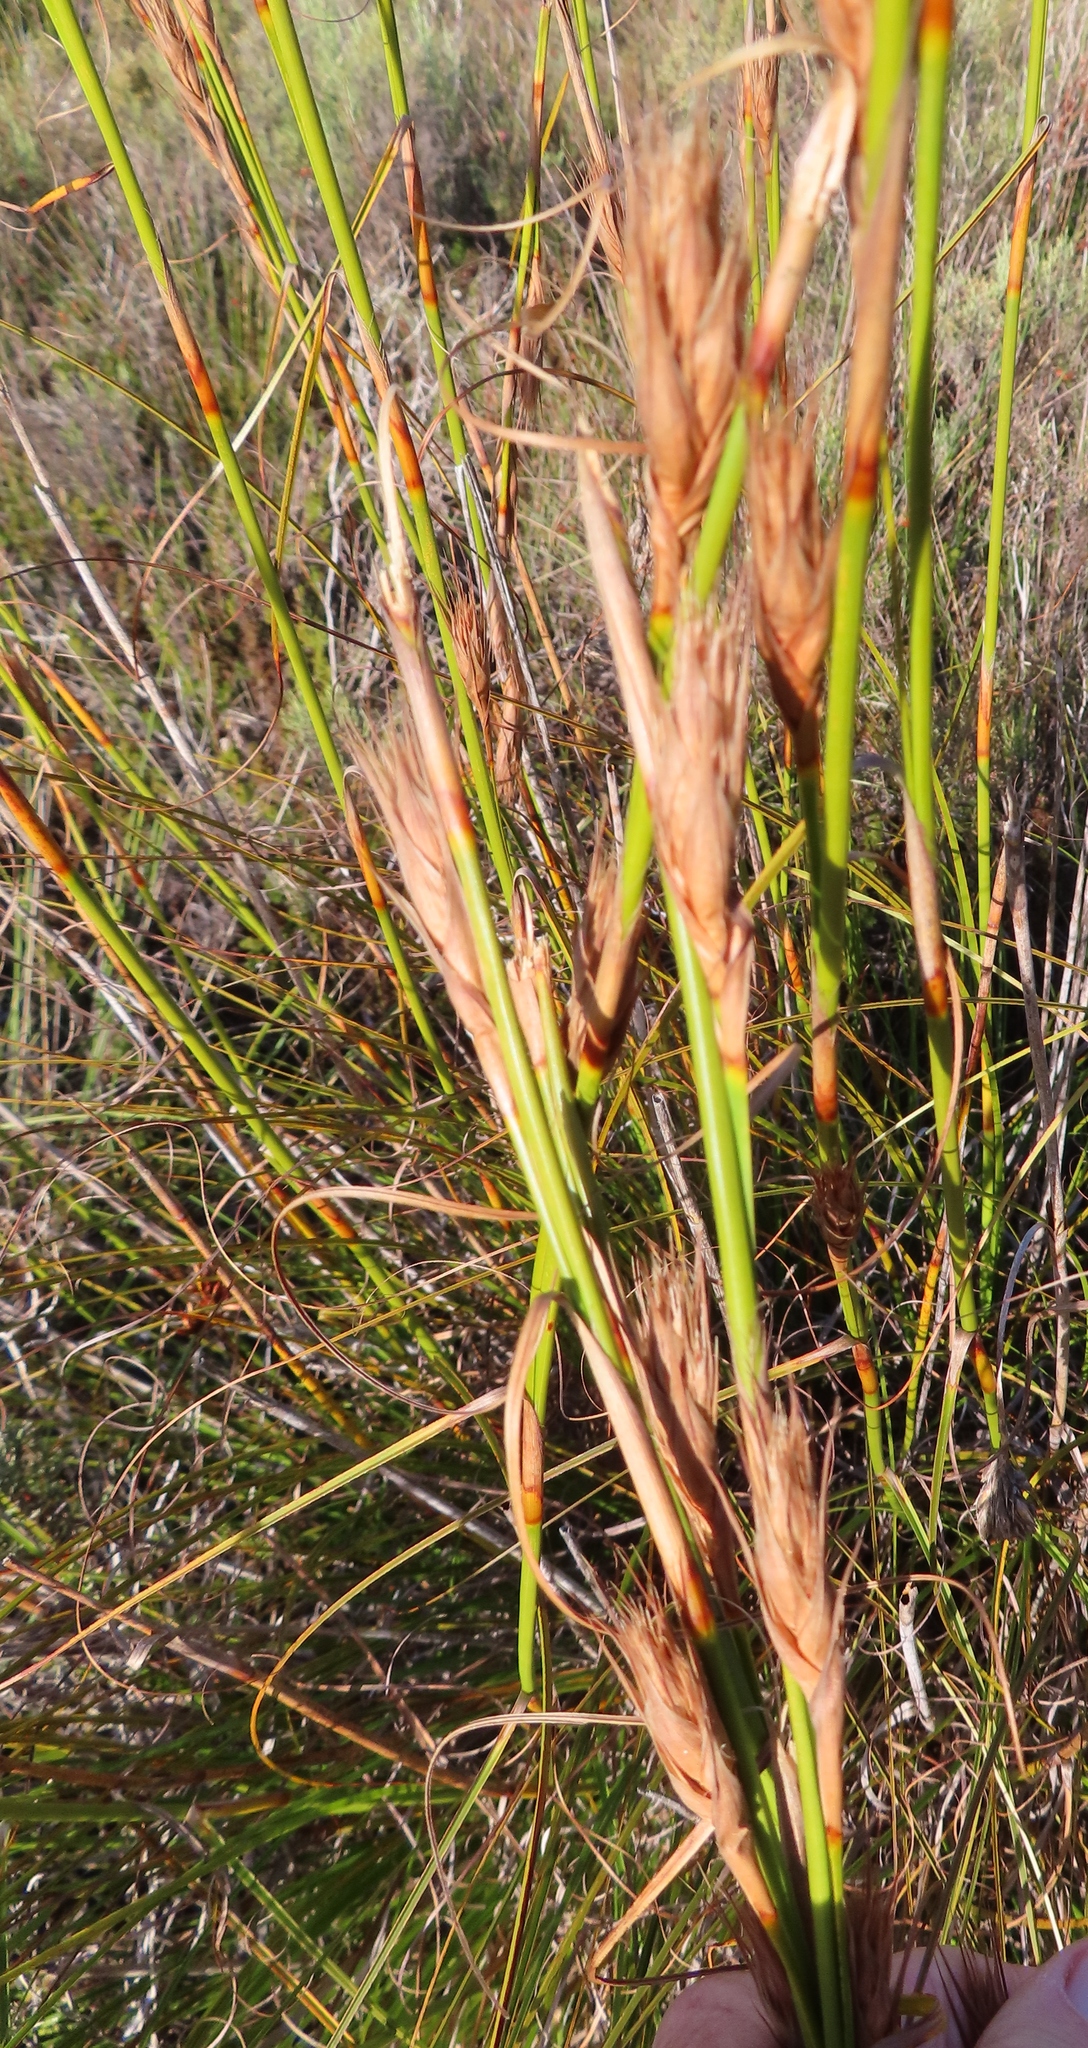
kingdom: Plantae
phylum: Tracheophyta
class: Liliopsida
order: Poales
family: Cyperaceae
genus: Tetraria
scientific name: Tetraria bromoides
